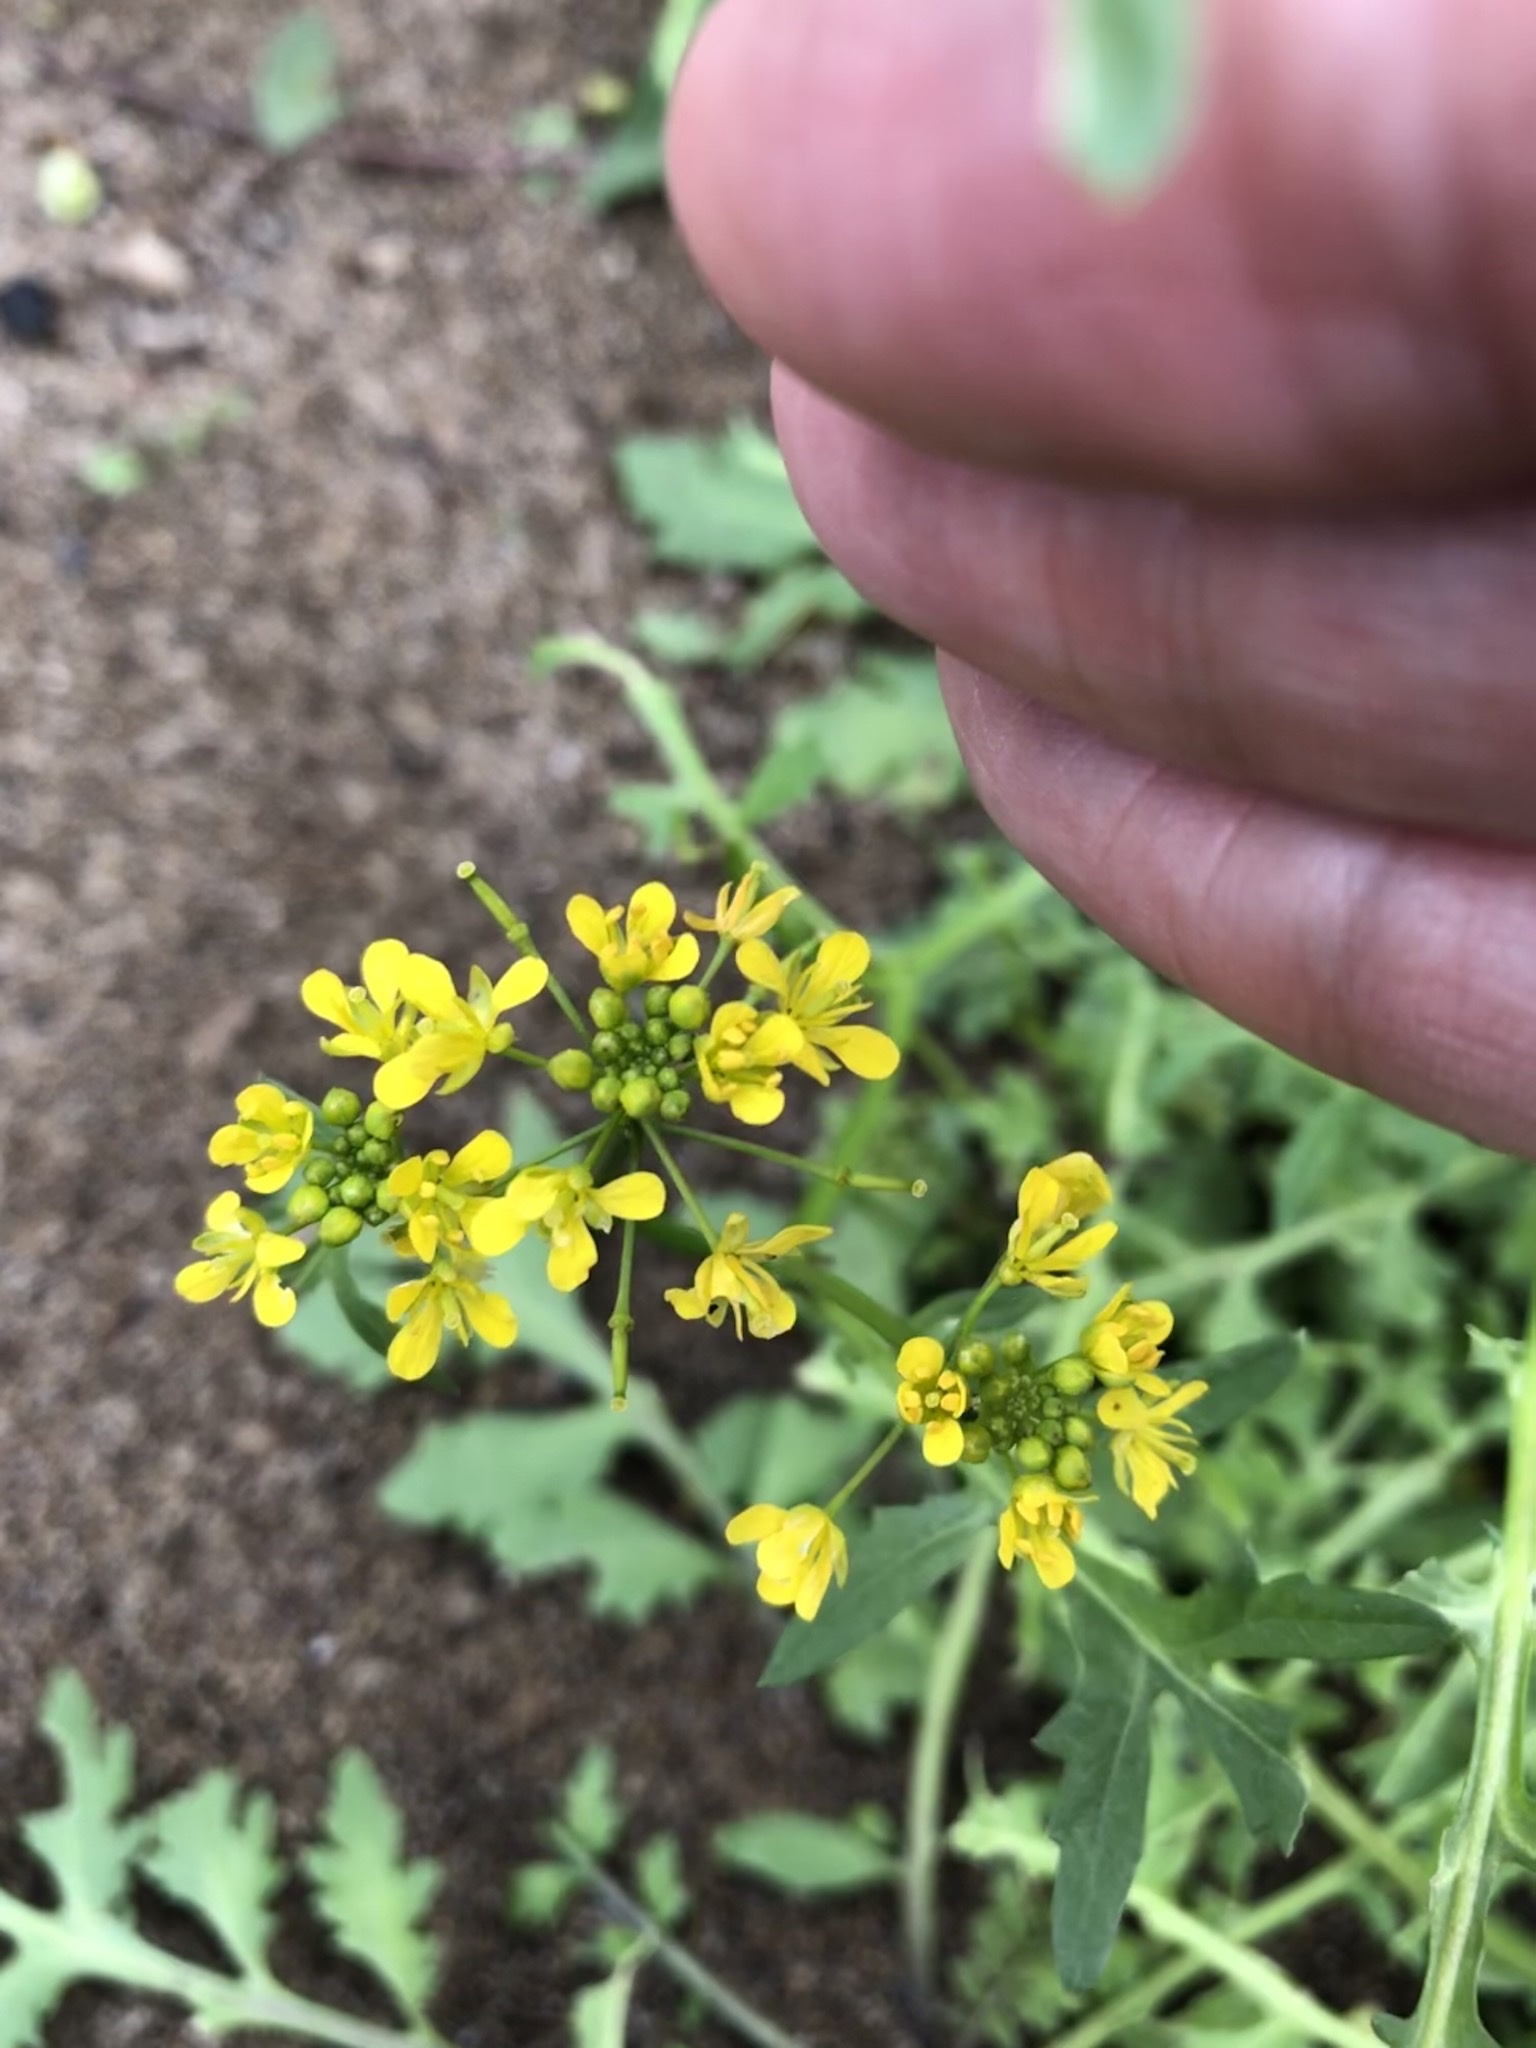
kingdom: Plantae
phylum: Tracheophyta
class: Magnoliopsida
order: Brassicales
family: Brassicaceae
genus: Rorippa
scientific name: Rorippa sylvestris
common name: Creeping yellowcress
